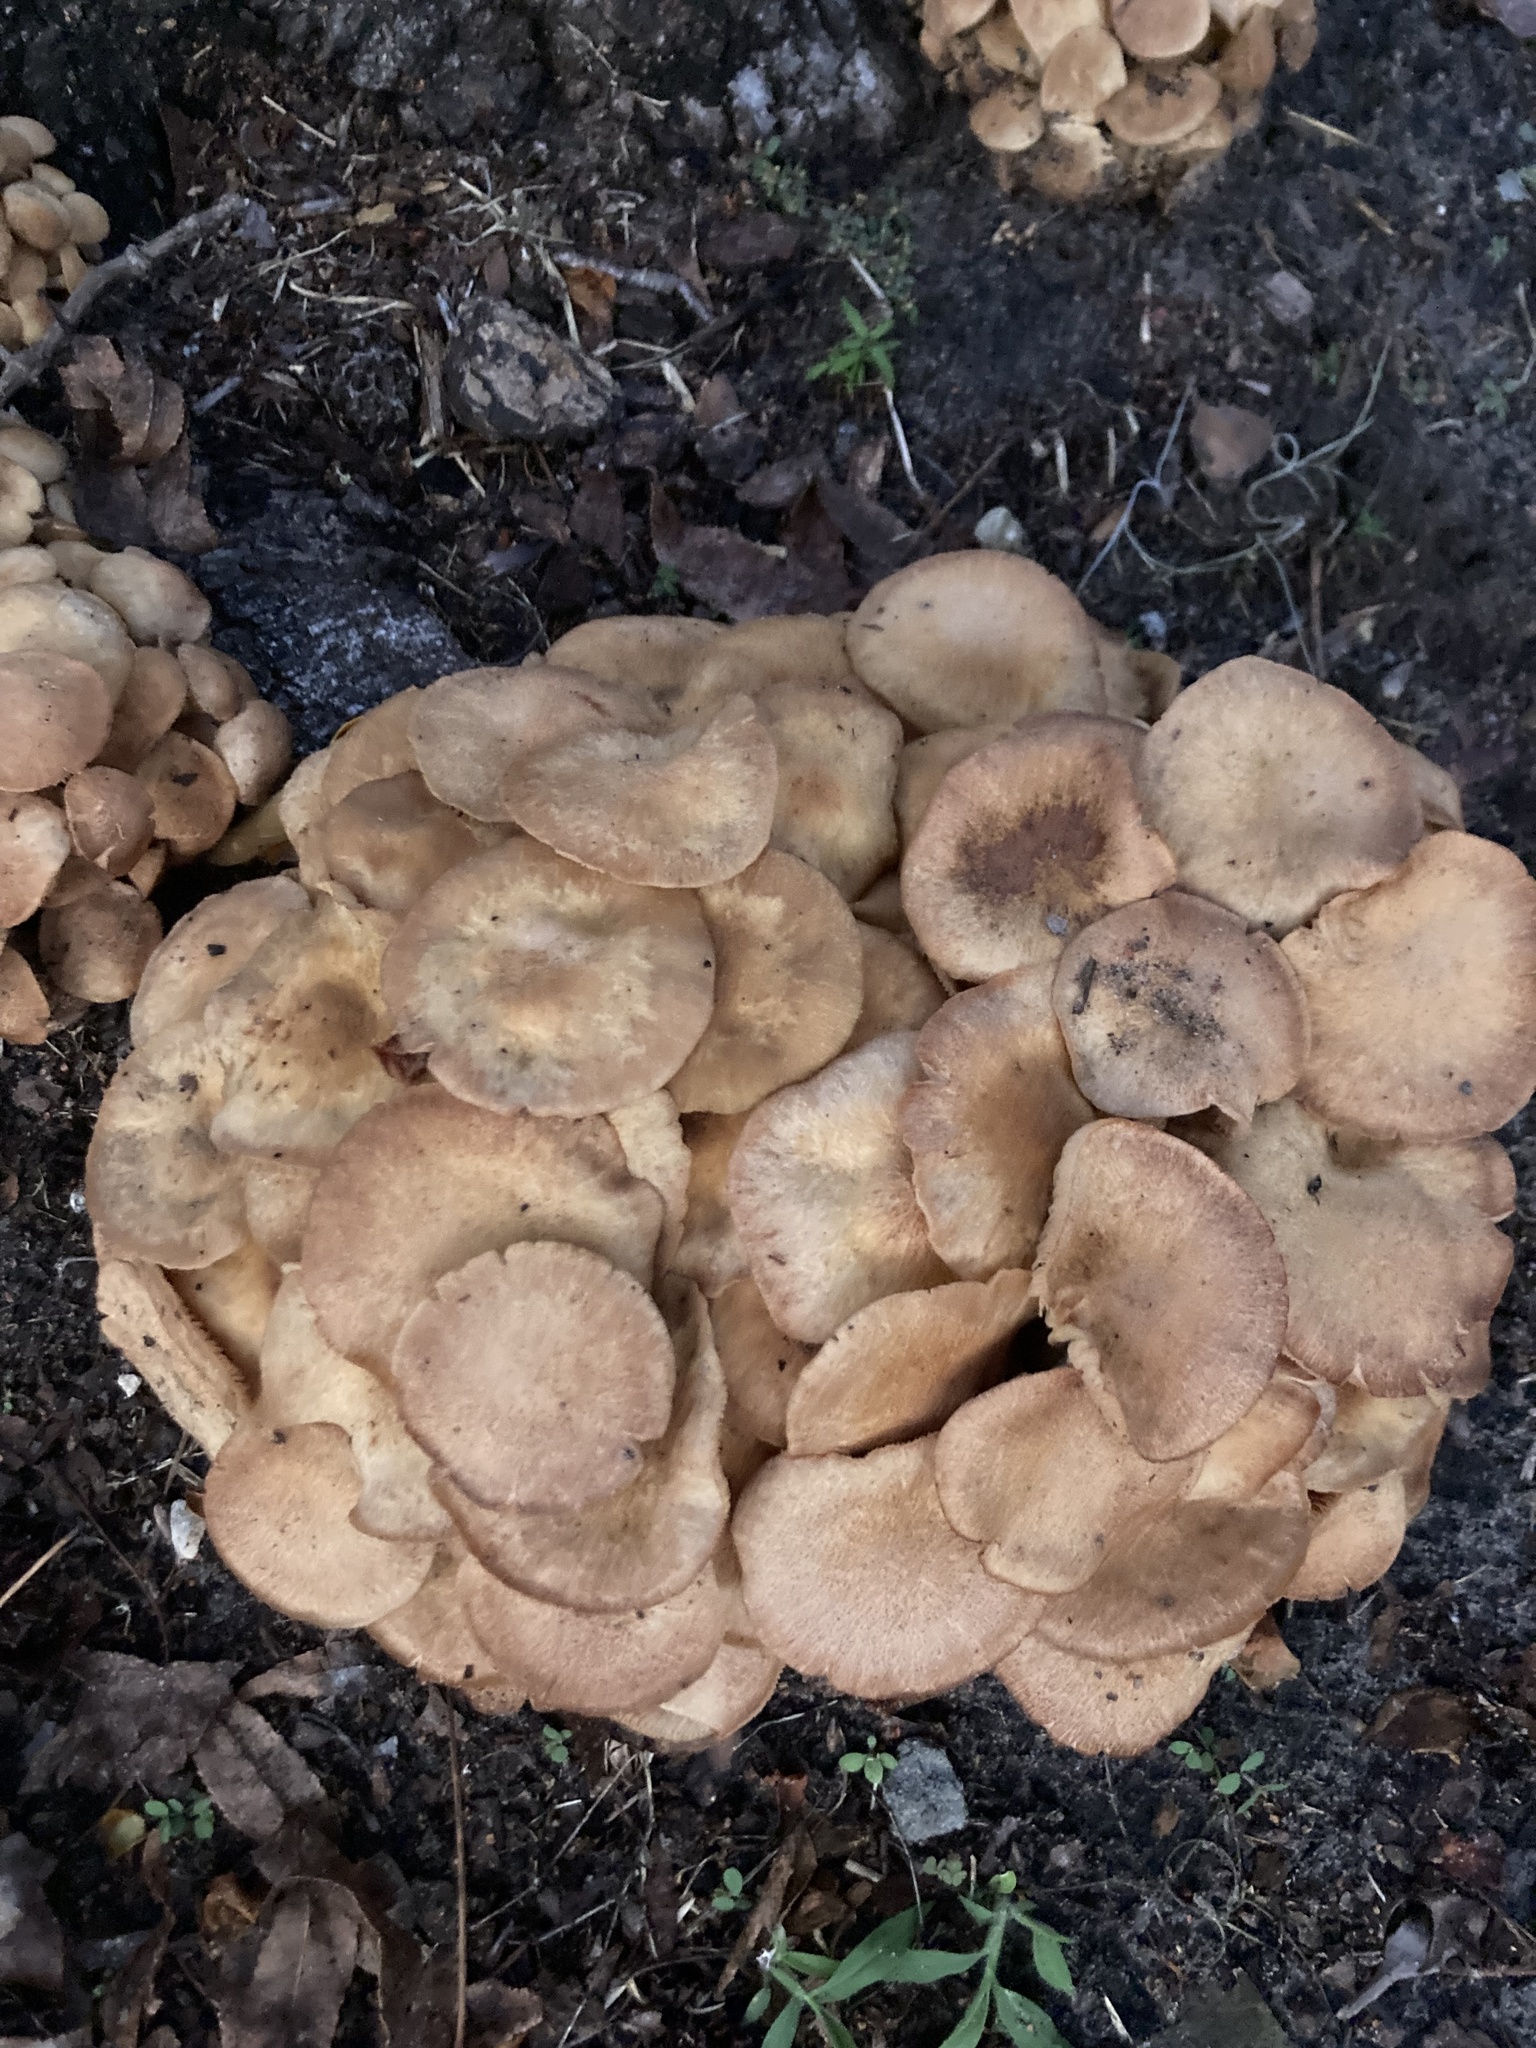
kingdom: Fungi
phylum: Basidiomycota
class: Agaricomycetes
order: Agaricales
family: Physalacriaceae
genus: Desarmillaria
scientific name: Desarmillaria caespitosa
